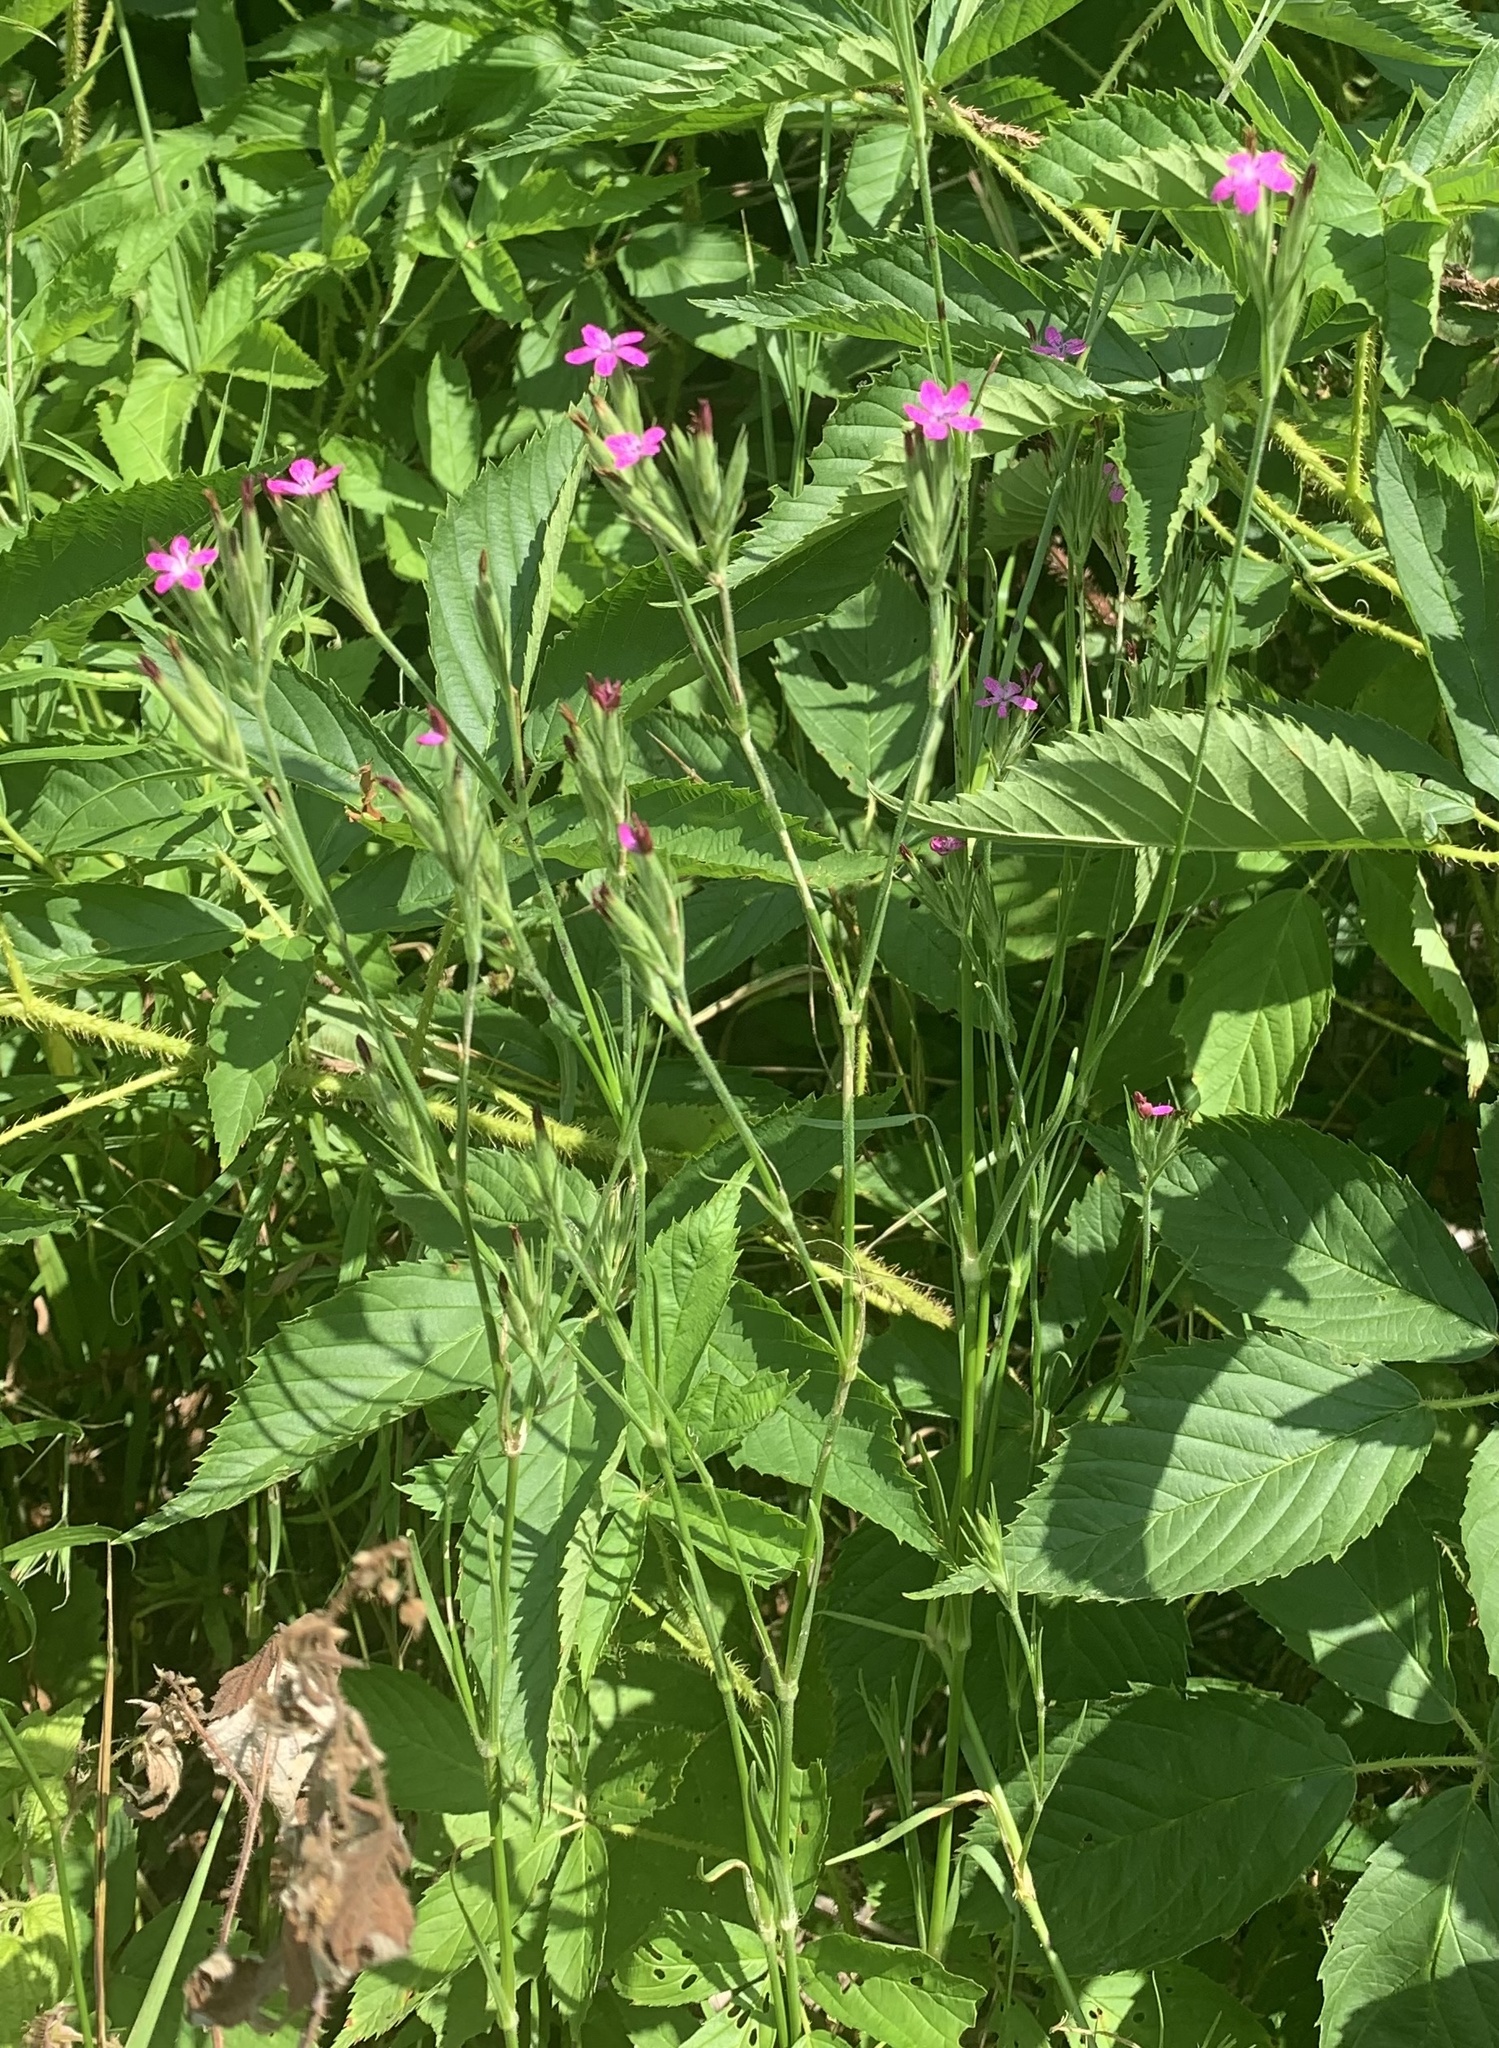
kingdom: Plantae
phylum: Tracheophyta
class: Magnoliopsida
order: Caryophyllales
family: Caryophyllaceae
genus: Dianthus
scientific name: Dianthus armeria
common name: Deptford pink
